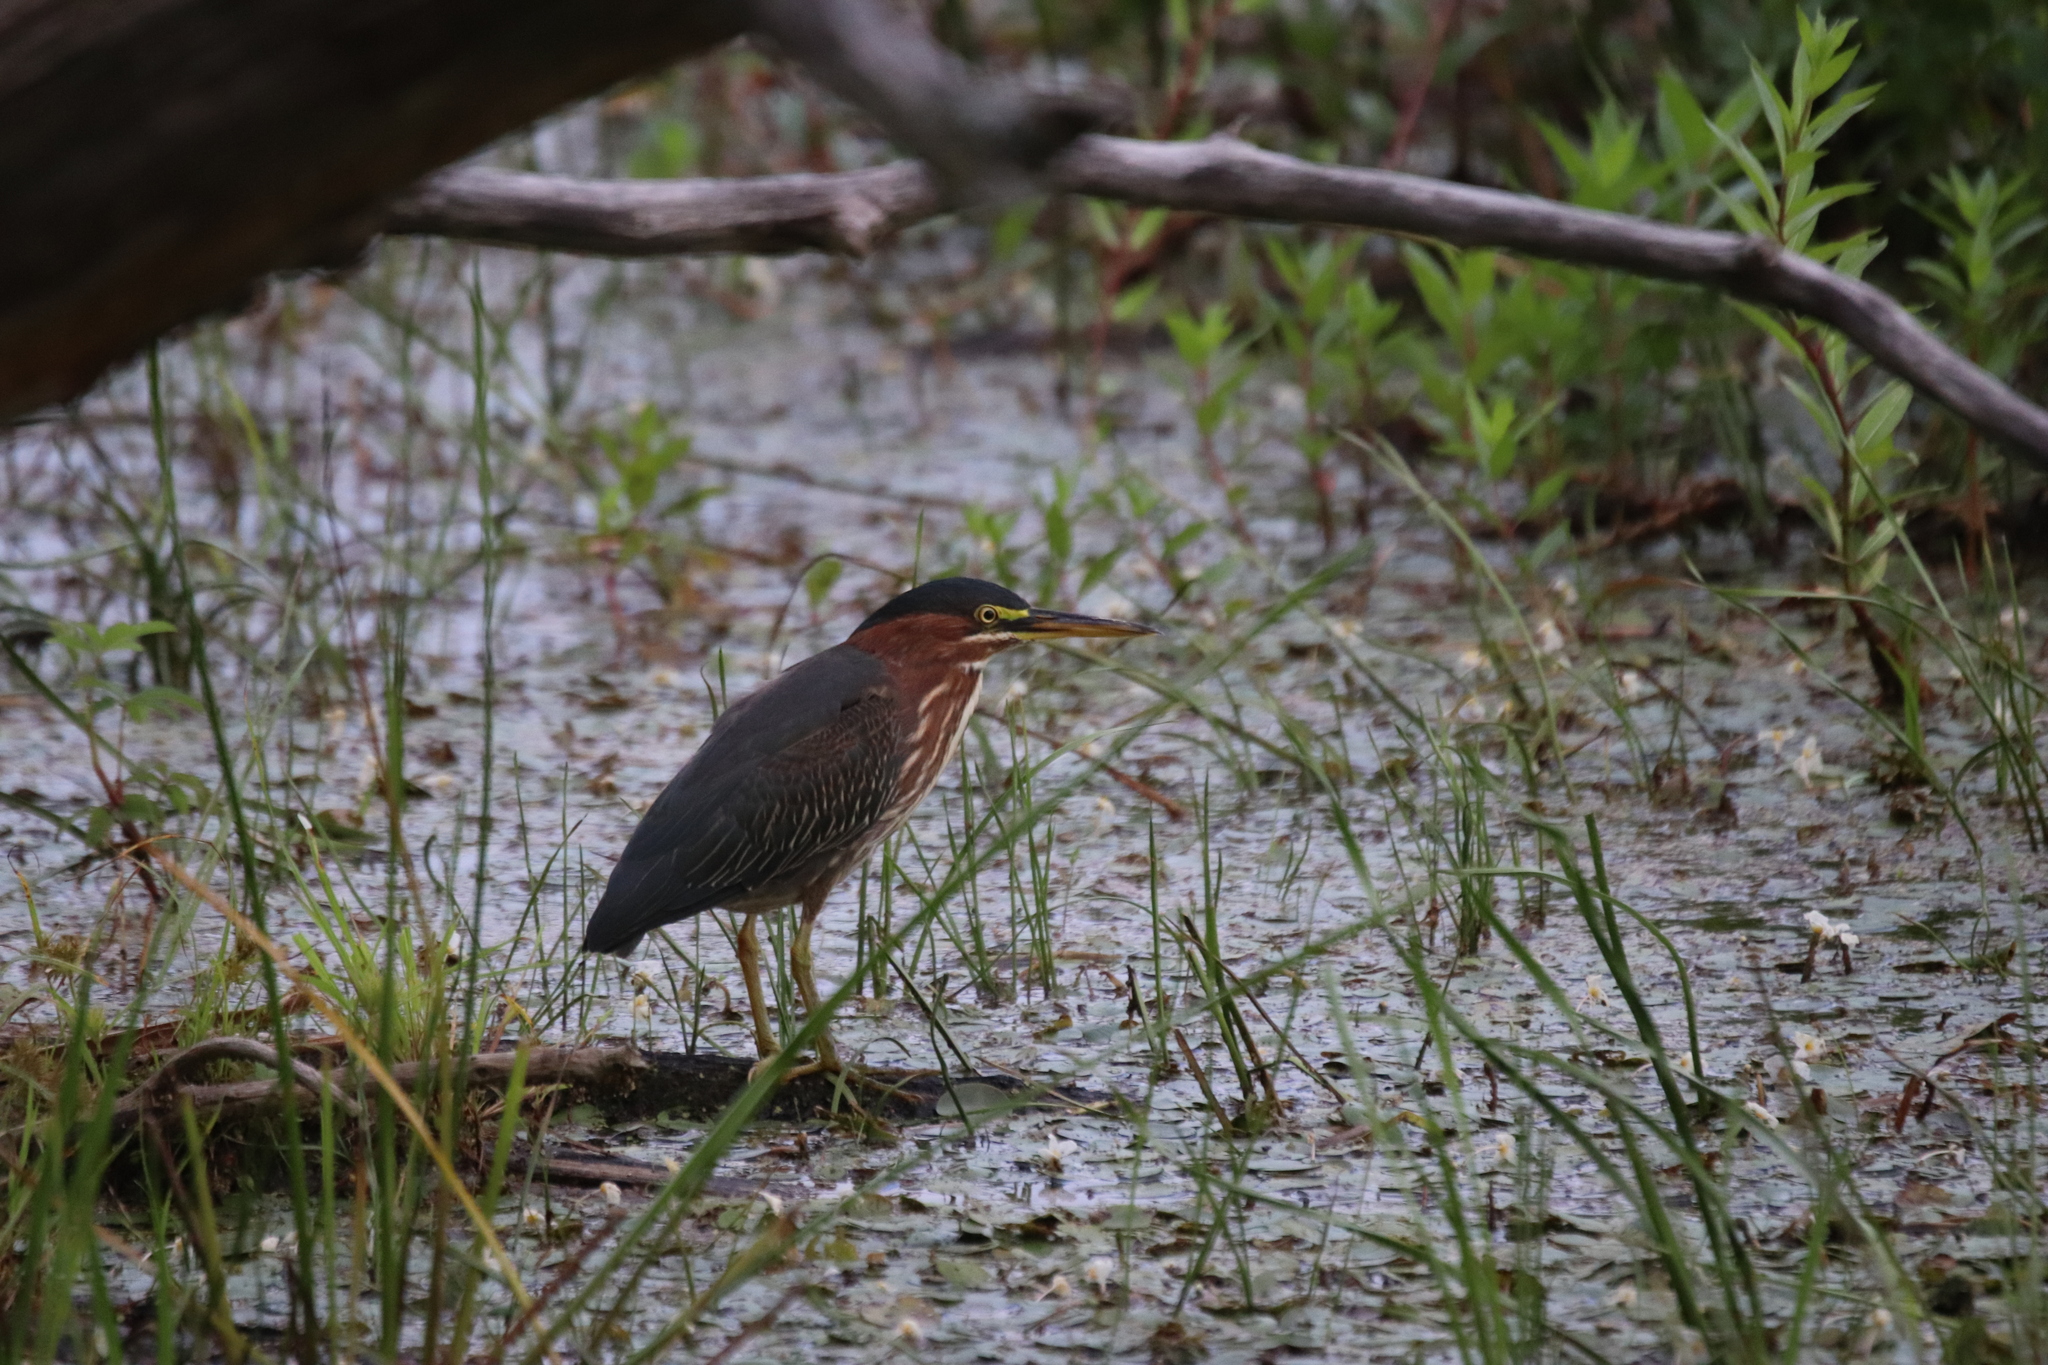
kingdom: Animalia
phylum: Chordata
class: Aves
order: Pelecaniformes
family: Ardeidae
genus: Butorides
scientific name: Butorides virescens
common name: Green heron
